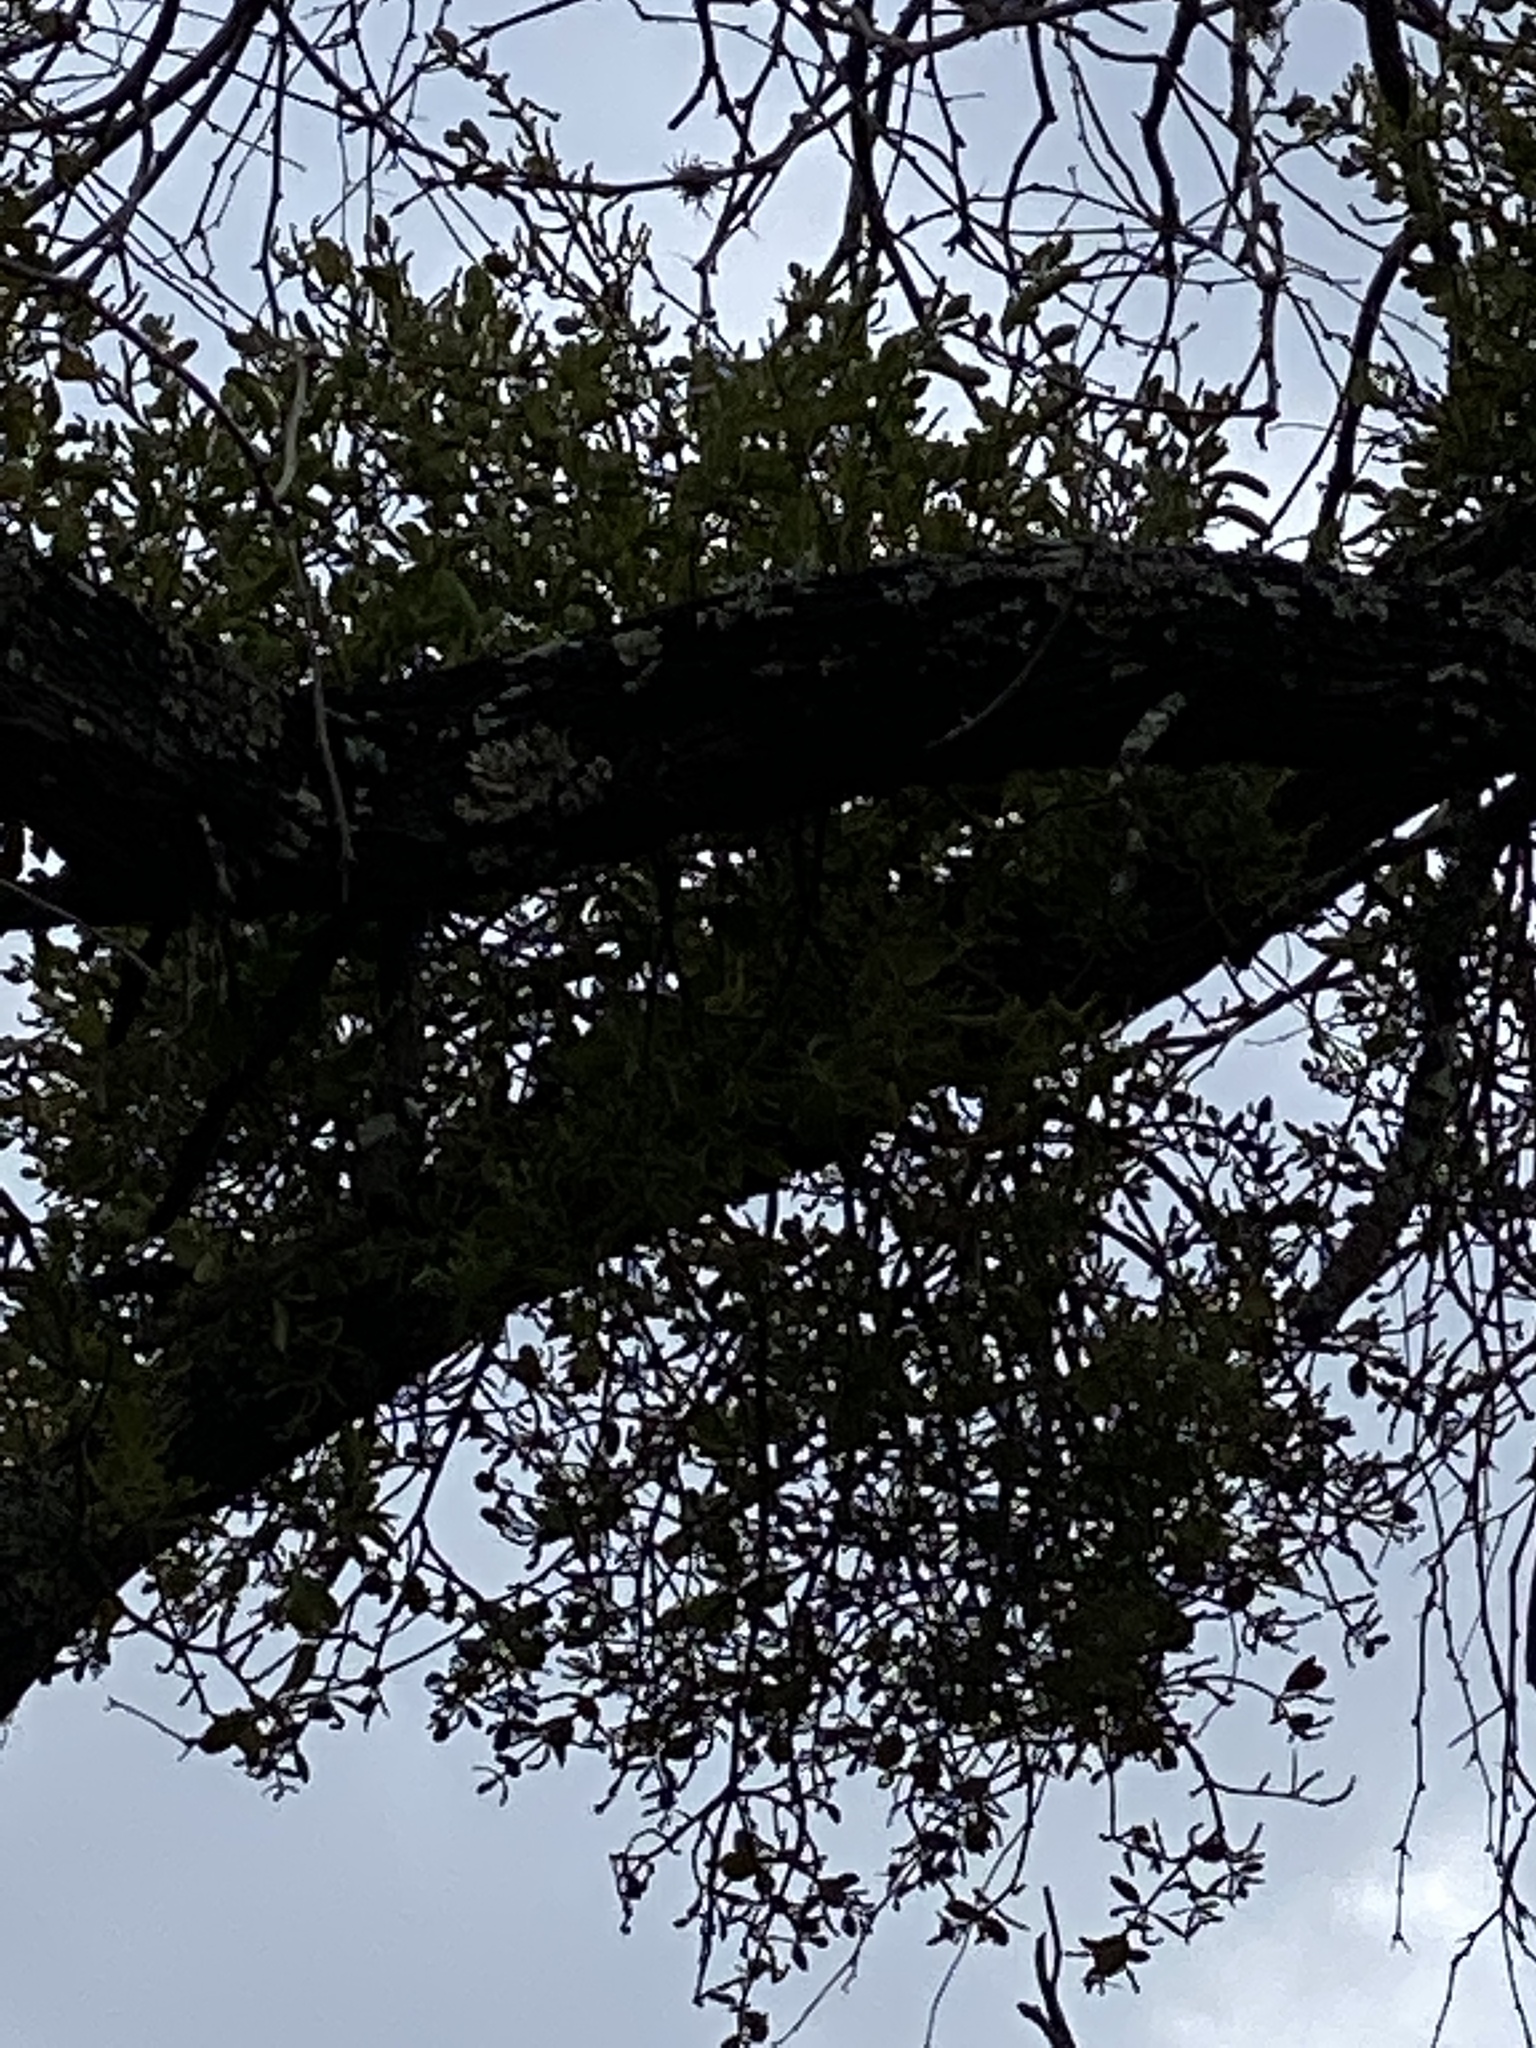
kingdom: Plantae
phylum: Tracheophyta
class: Magnoliopsida
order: Santalales
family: Viscaceae
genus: Phoradendron
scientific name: Phoradendron leucarpum
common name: Pacific mistletoe
